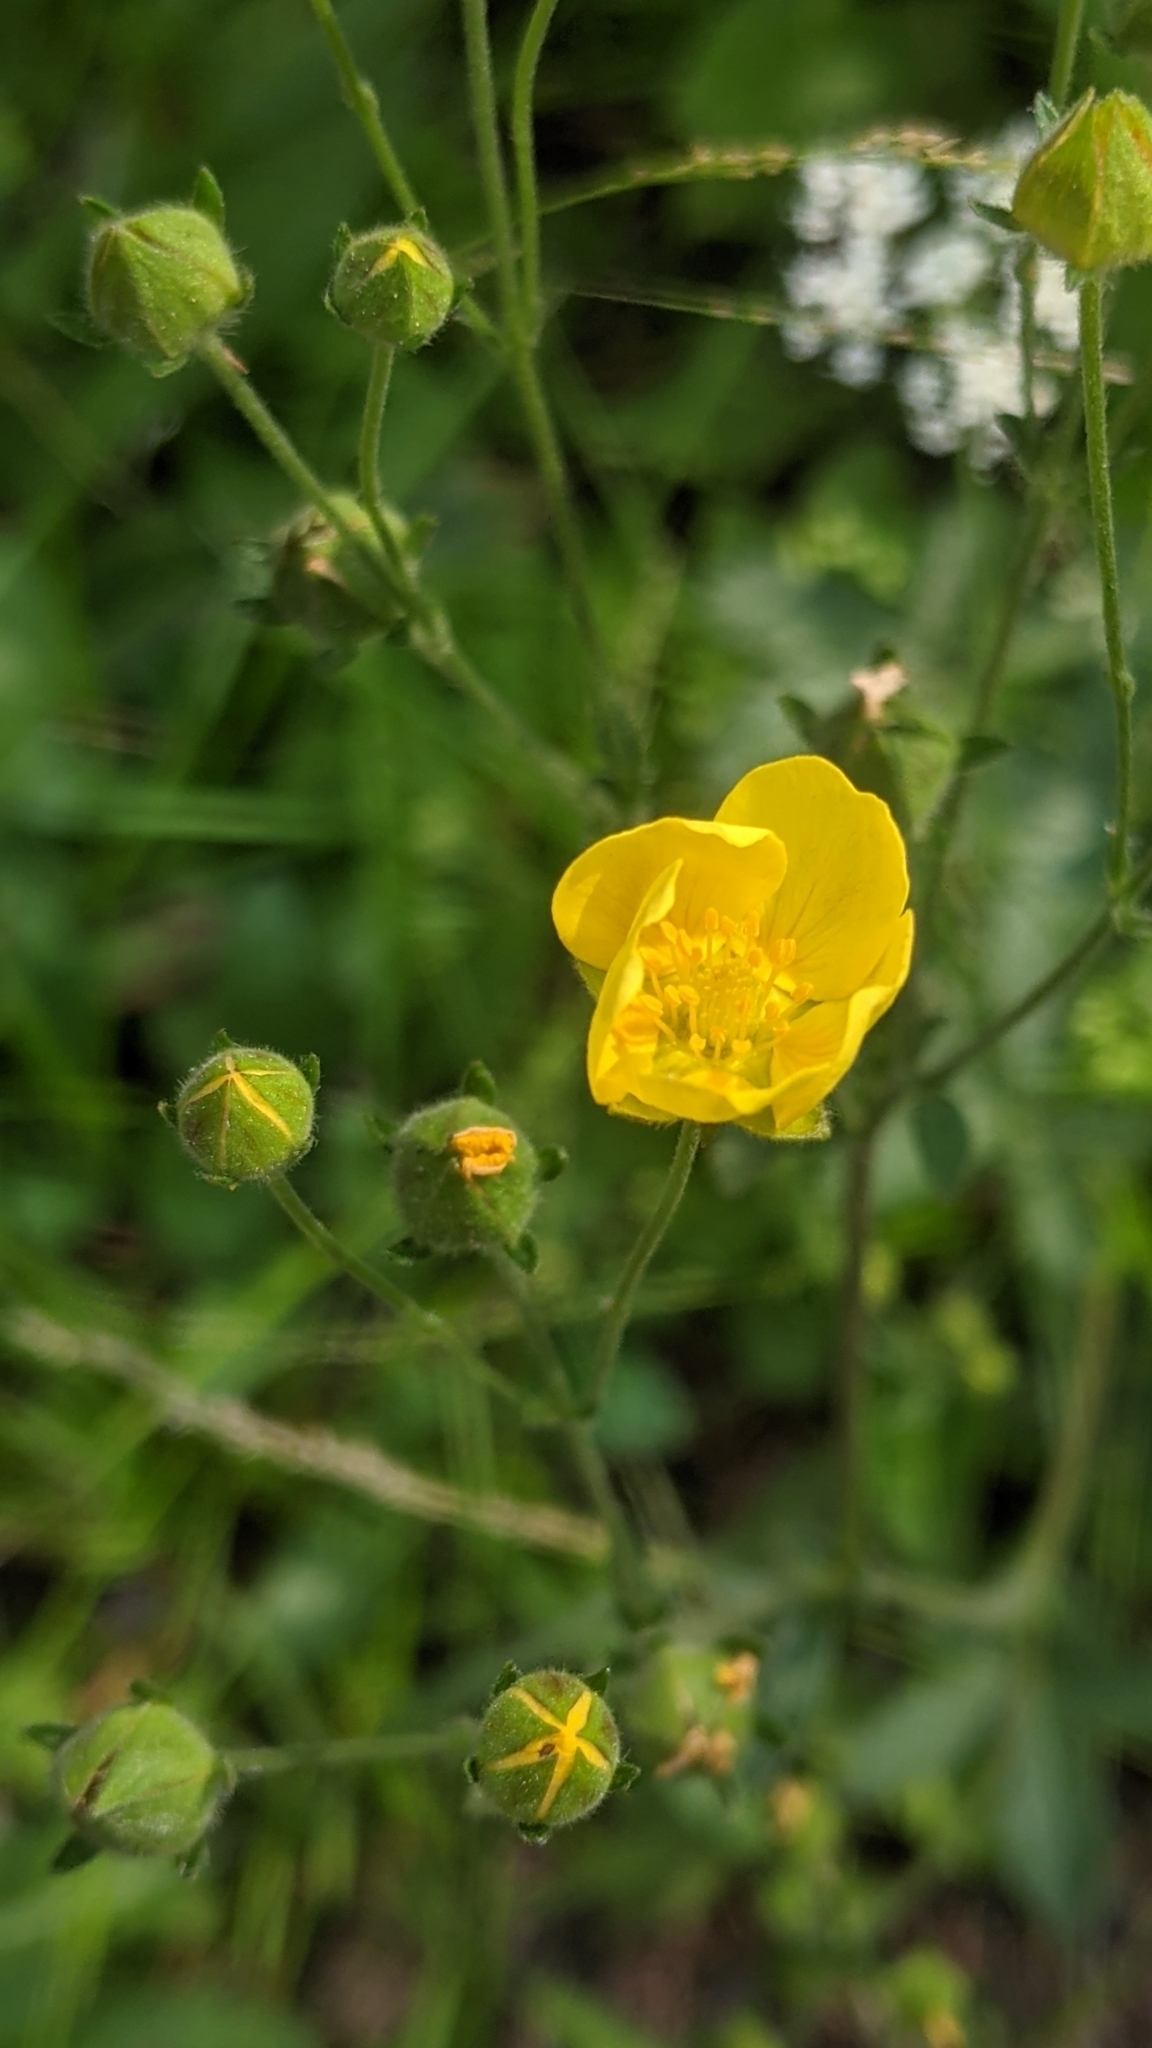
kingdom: Plantae
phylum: Tracheophyta
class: Magnoliopsida
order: Rosales
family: Rosaceae
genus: Potentilla
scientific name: Potentilla gracilis
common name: Graceful cinquefoil
